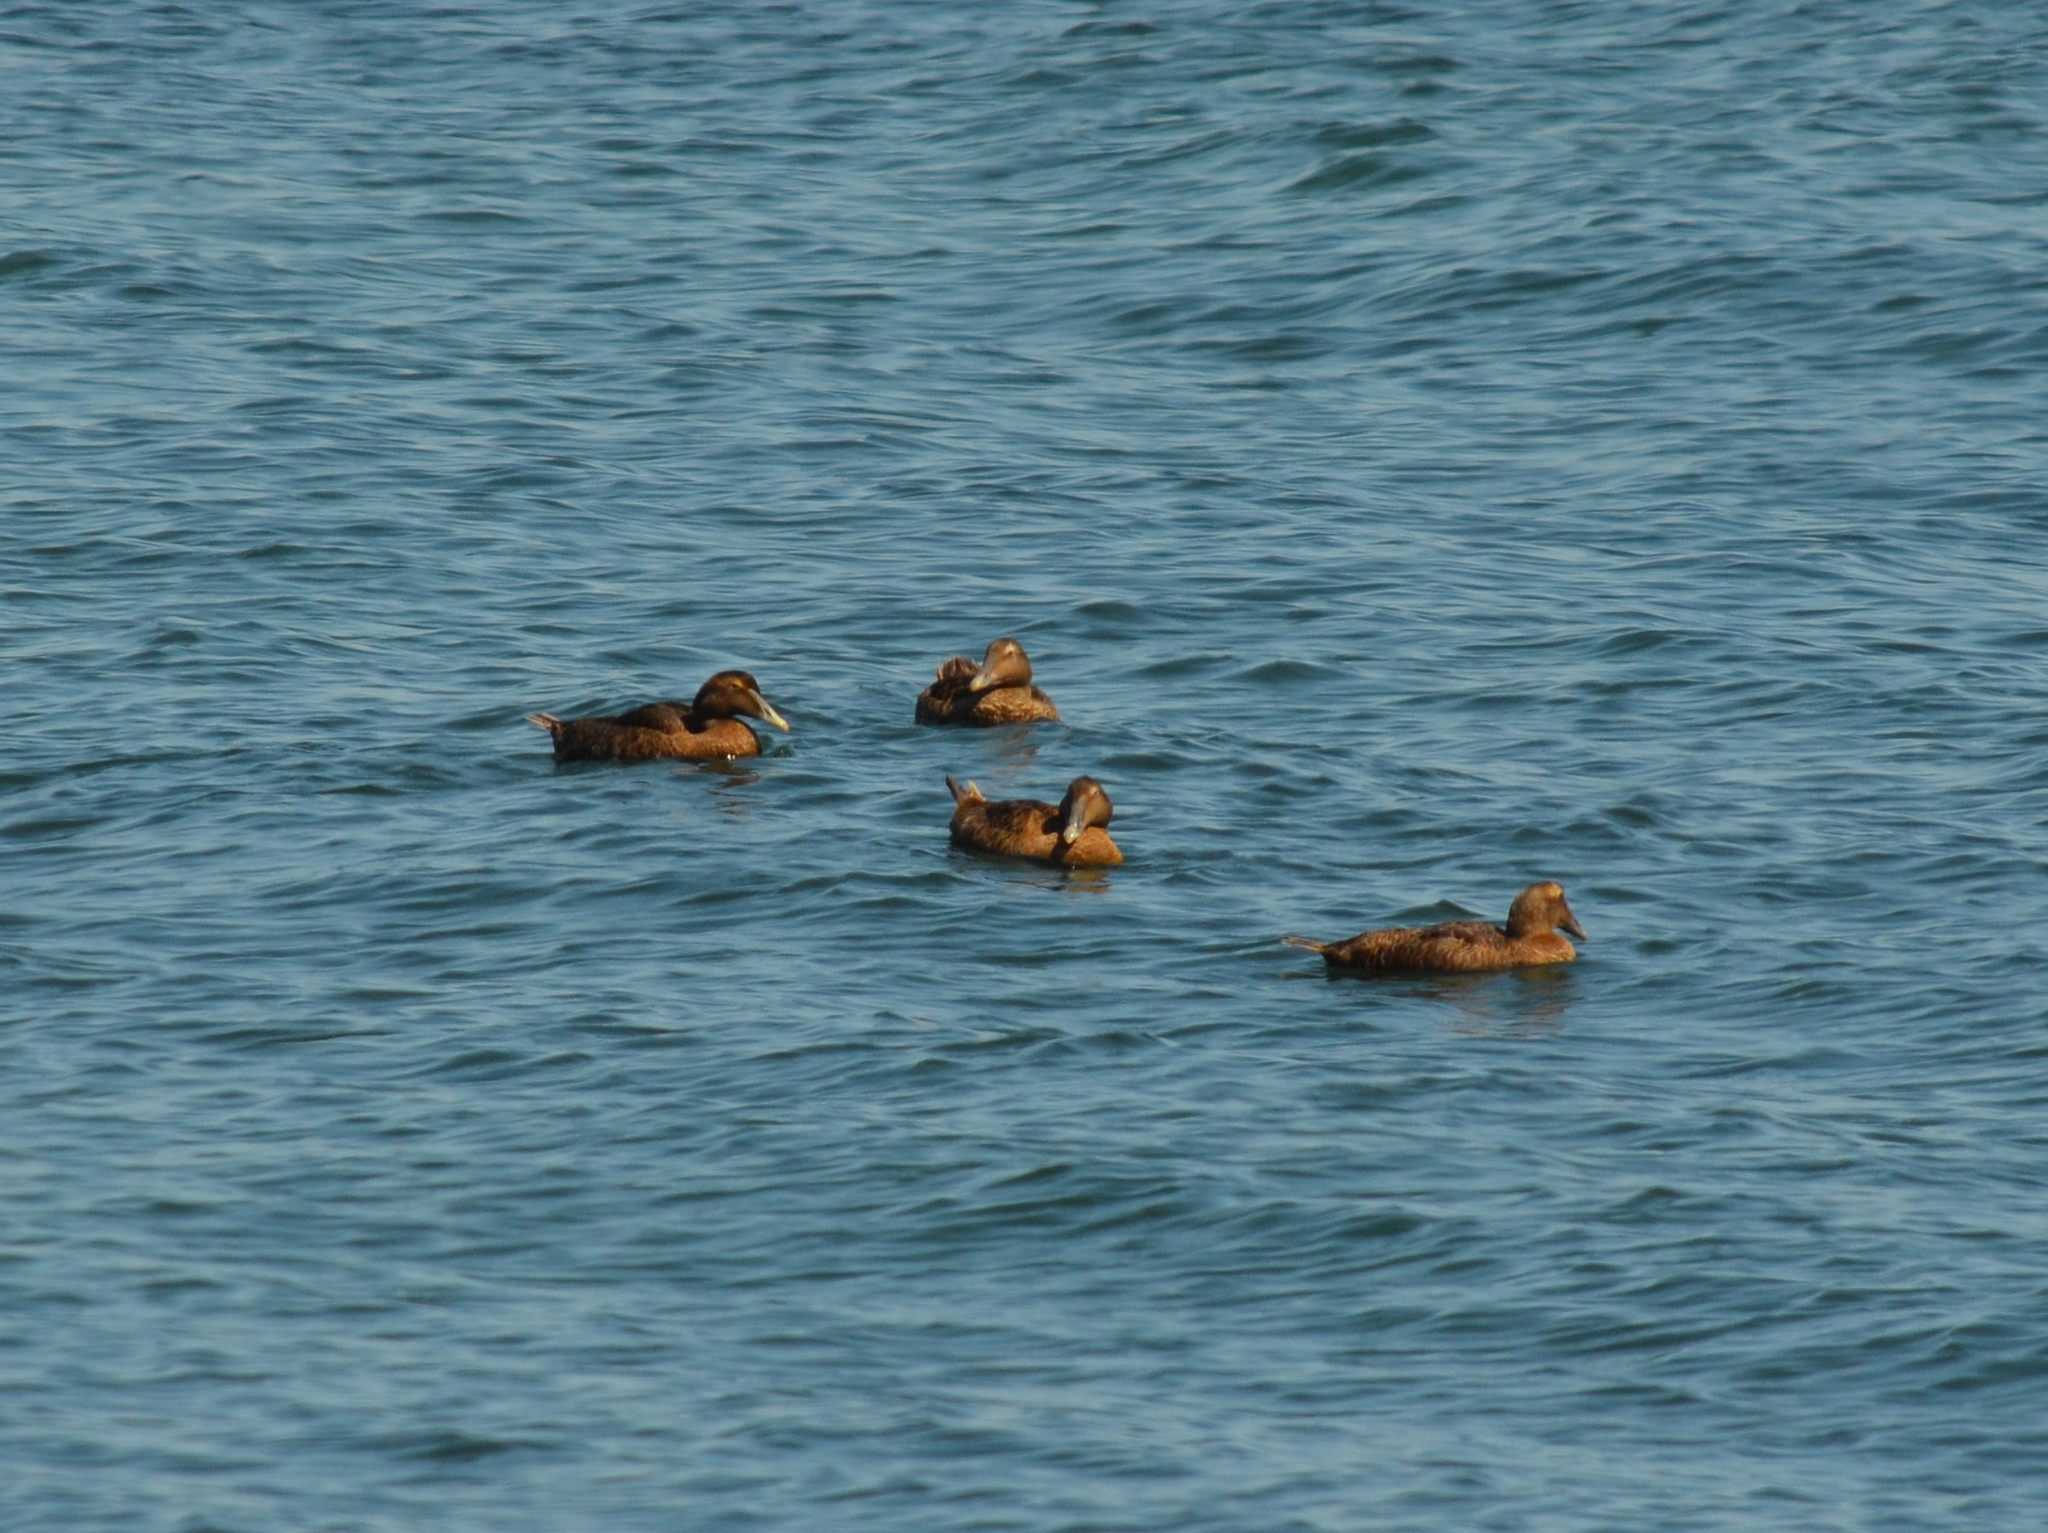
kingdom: Animalia
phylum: Chordata
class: Aves
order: Anseriformes
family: Anatidae
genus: Somateria
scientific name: Somateria mollissima
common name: Common eider
